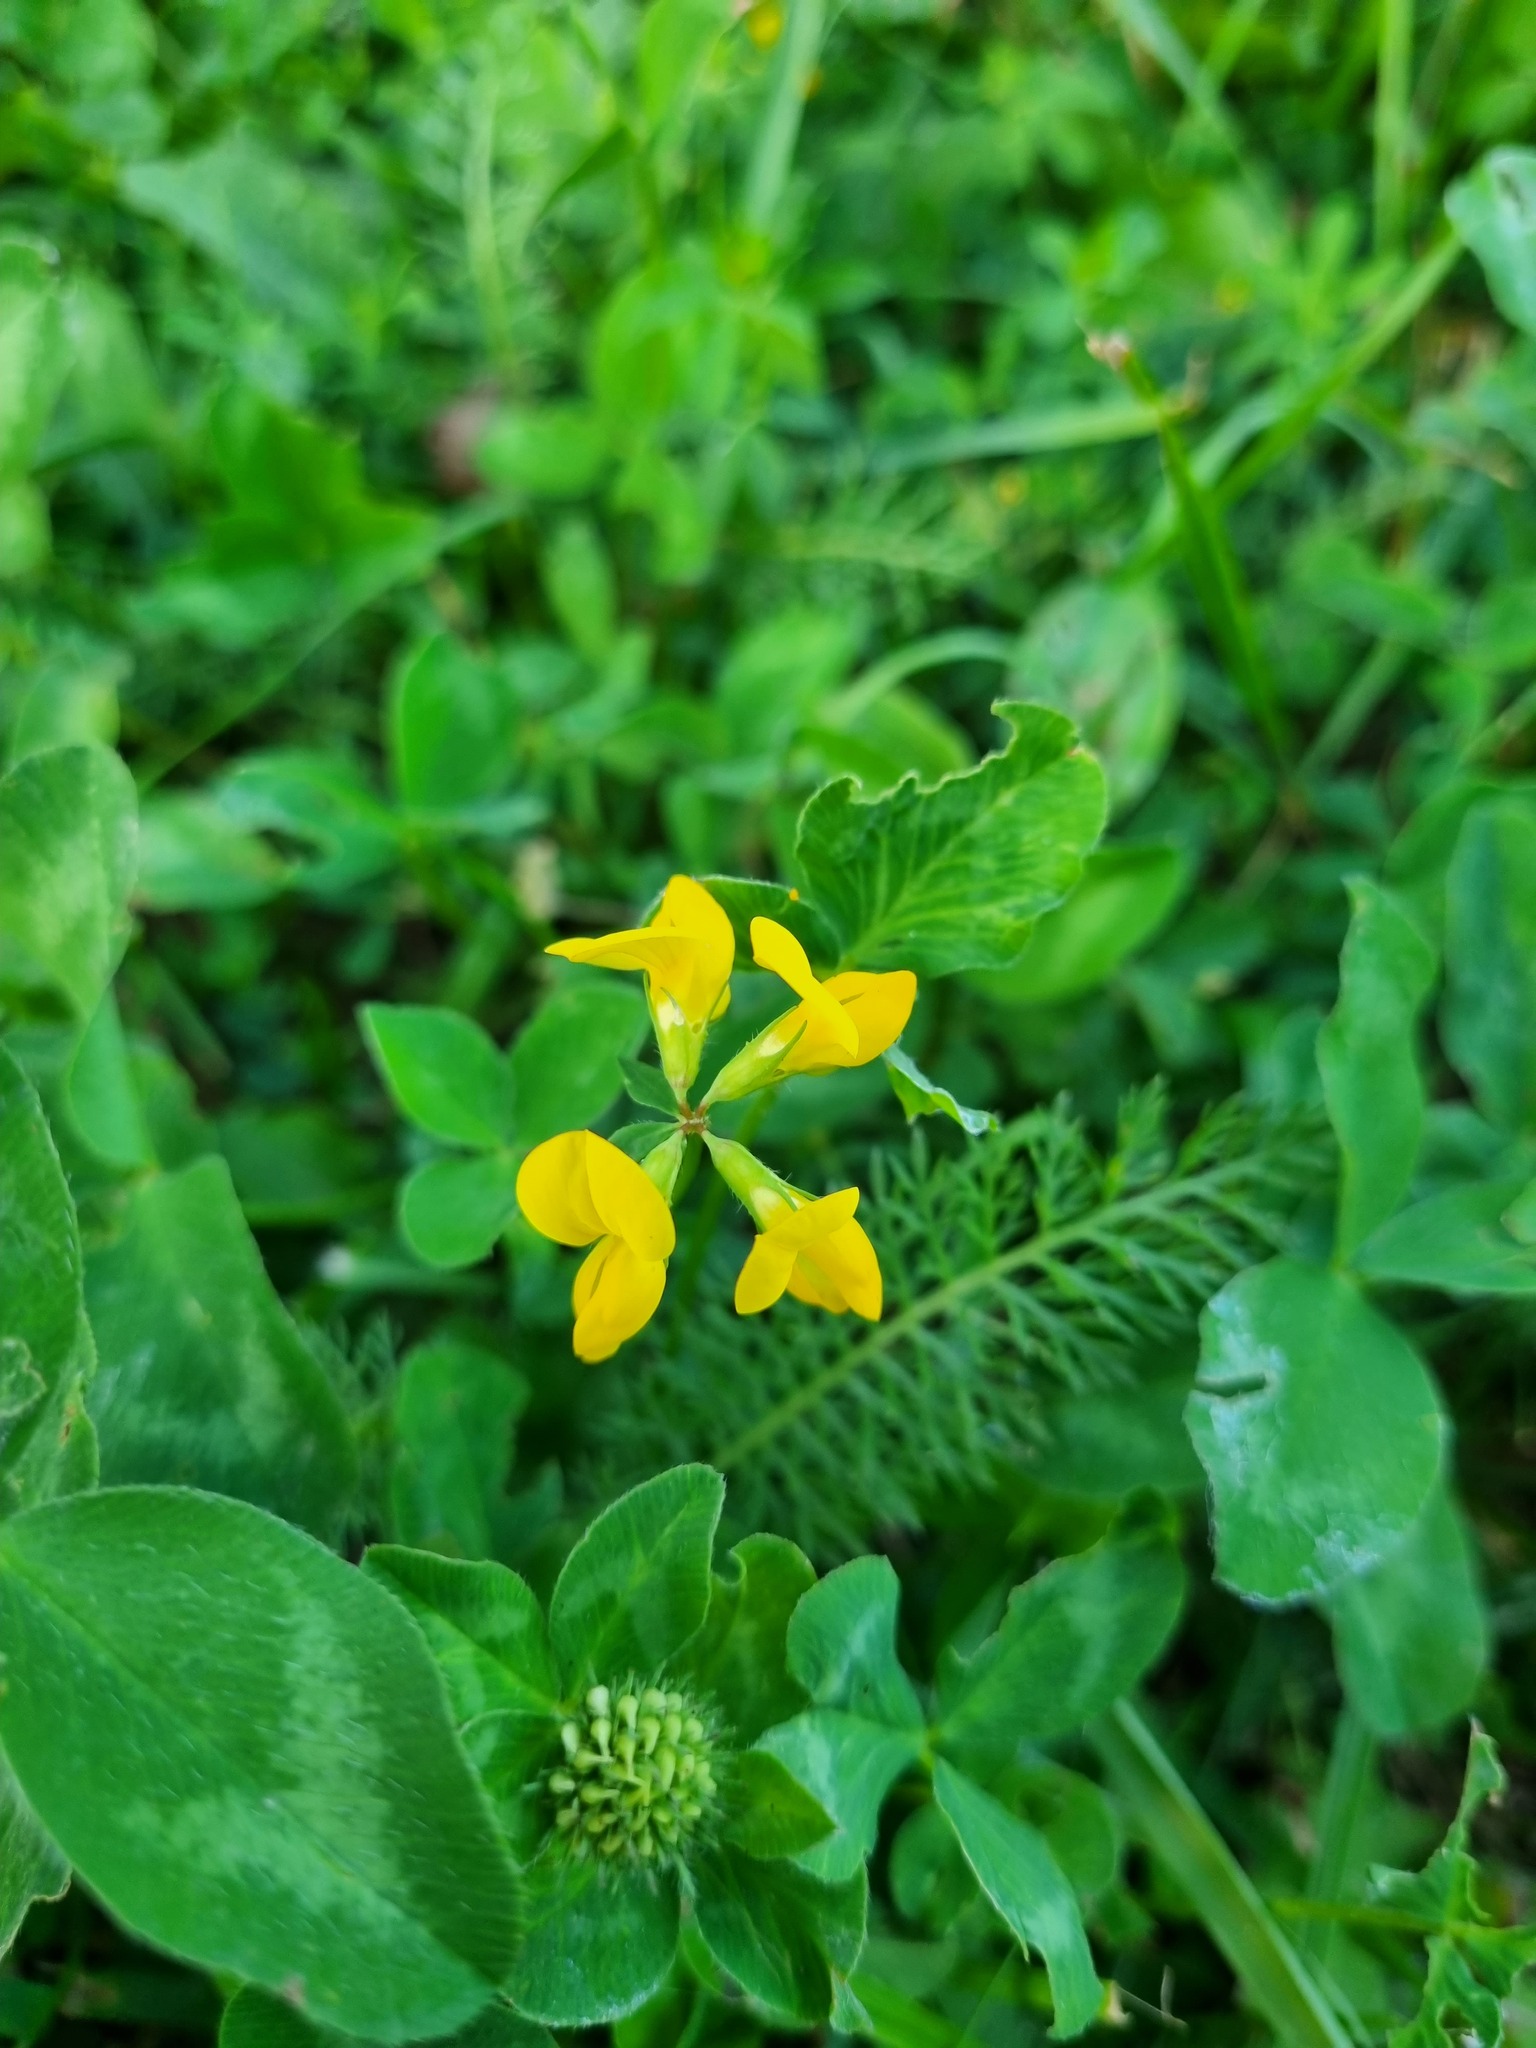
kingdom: Plantae
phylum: Tracheophyta
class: Magnoliopsida
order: Fabales
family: Fabaceae
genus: Lotus
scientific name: Lotus corniculatus
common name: Common bird's-foot-trefoil
